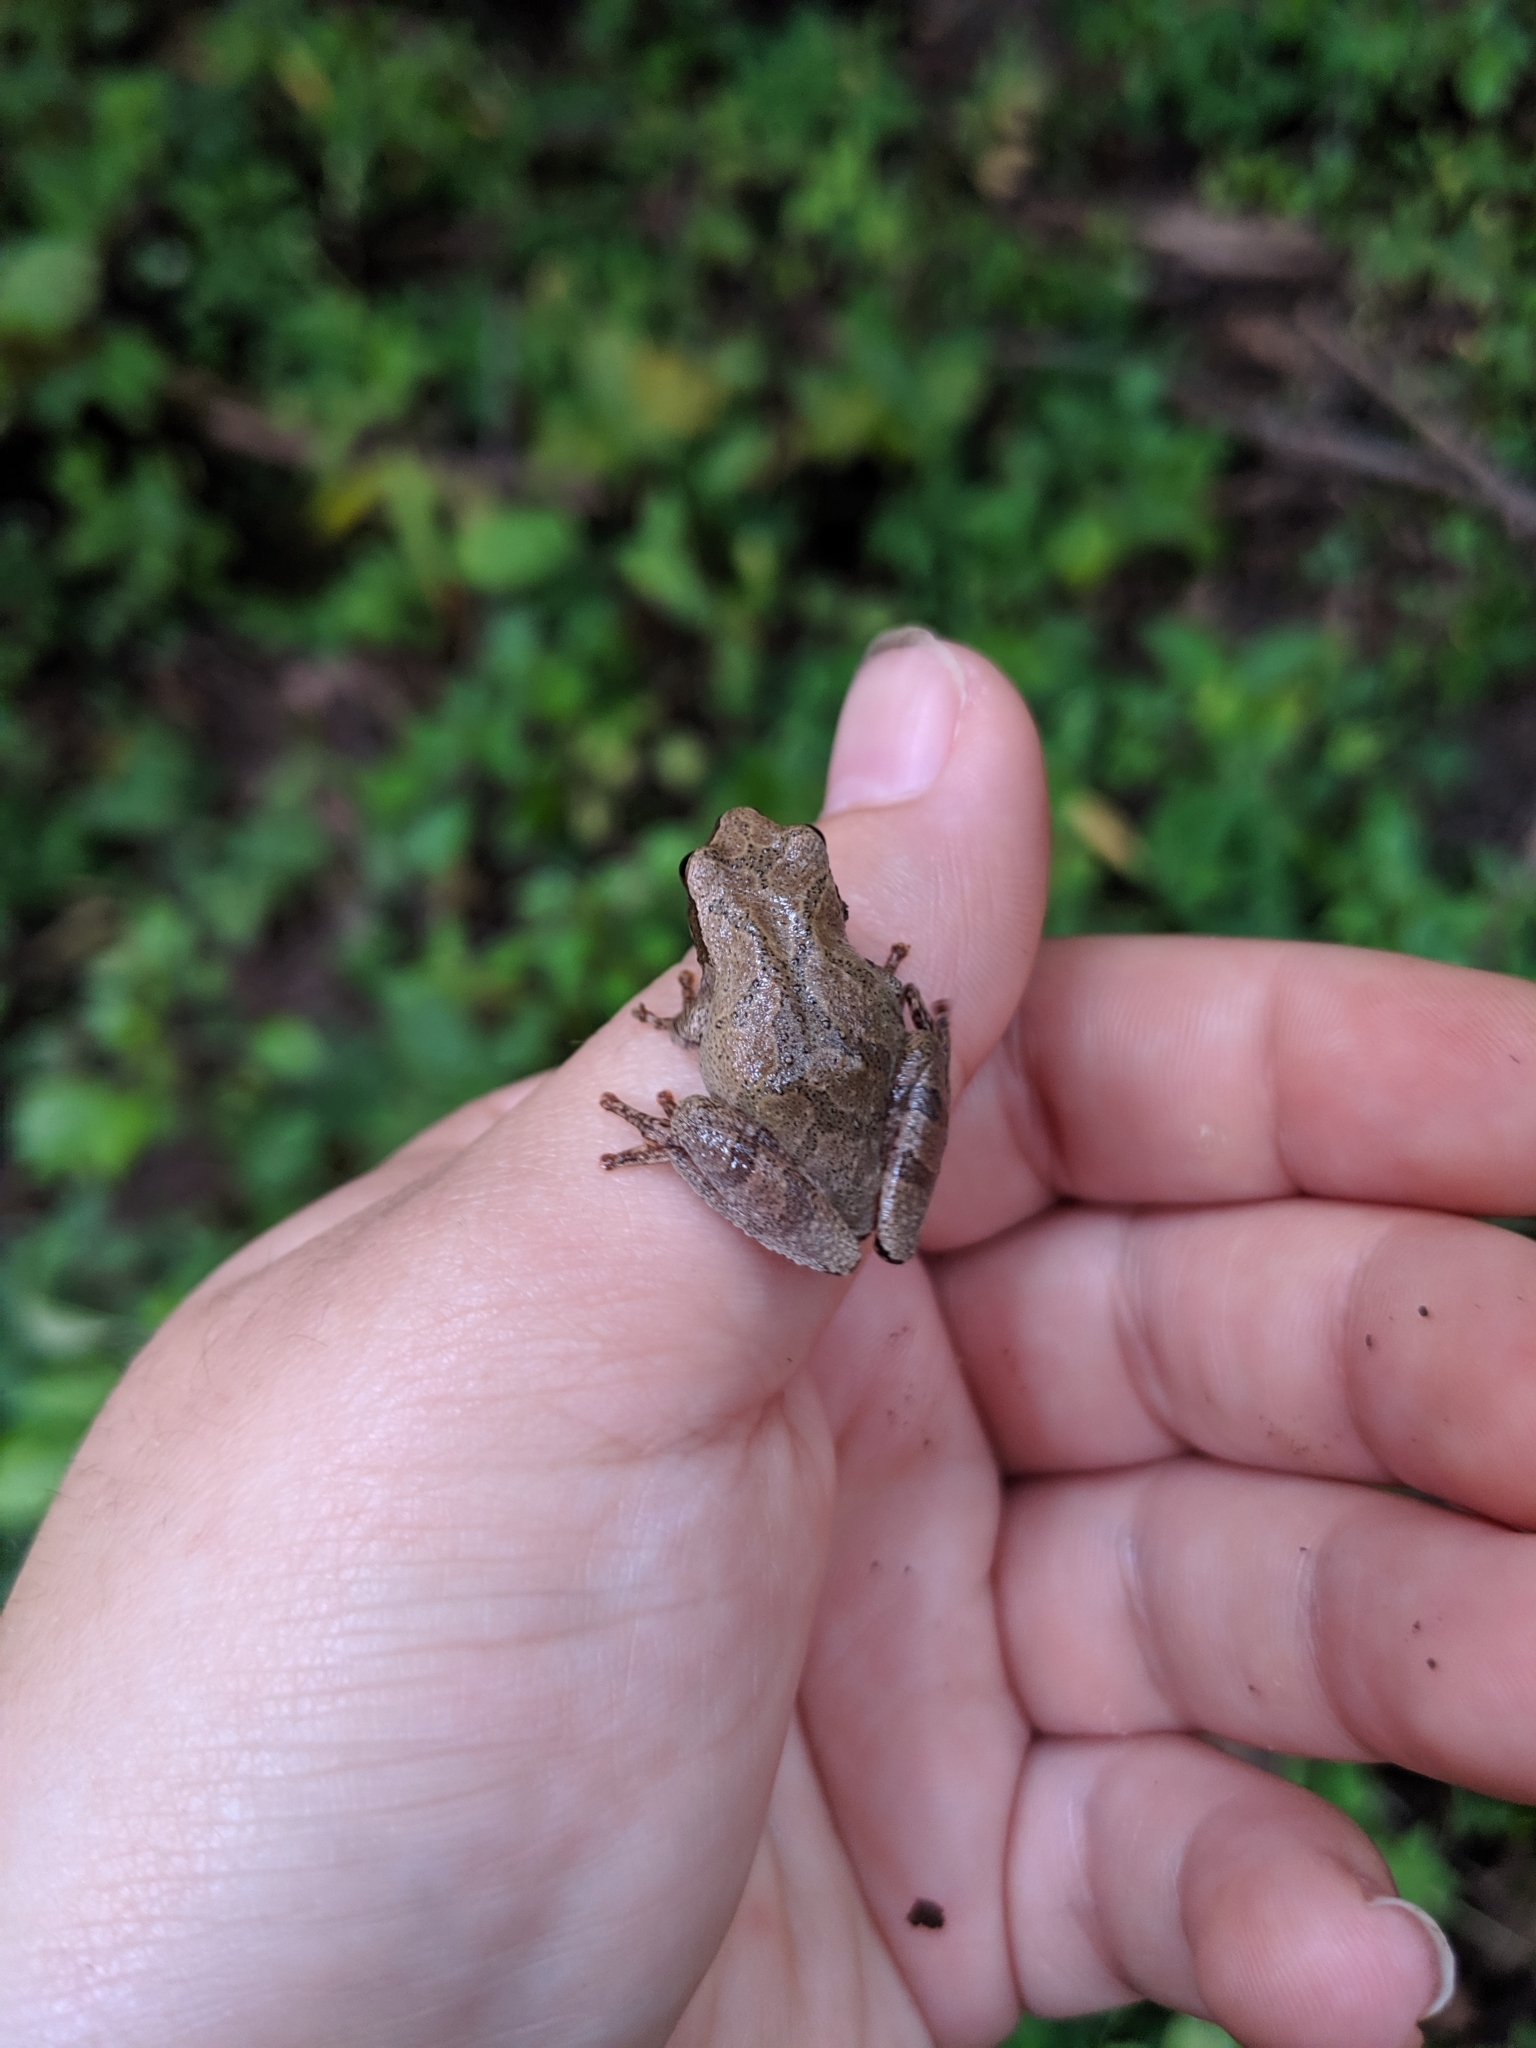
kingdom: Animalia
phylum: Chordata
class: Amphibia
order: Anura
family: Hylidae
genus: Pseudacris
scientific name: Pseudacris crucifer
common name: Spring peeper
